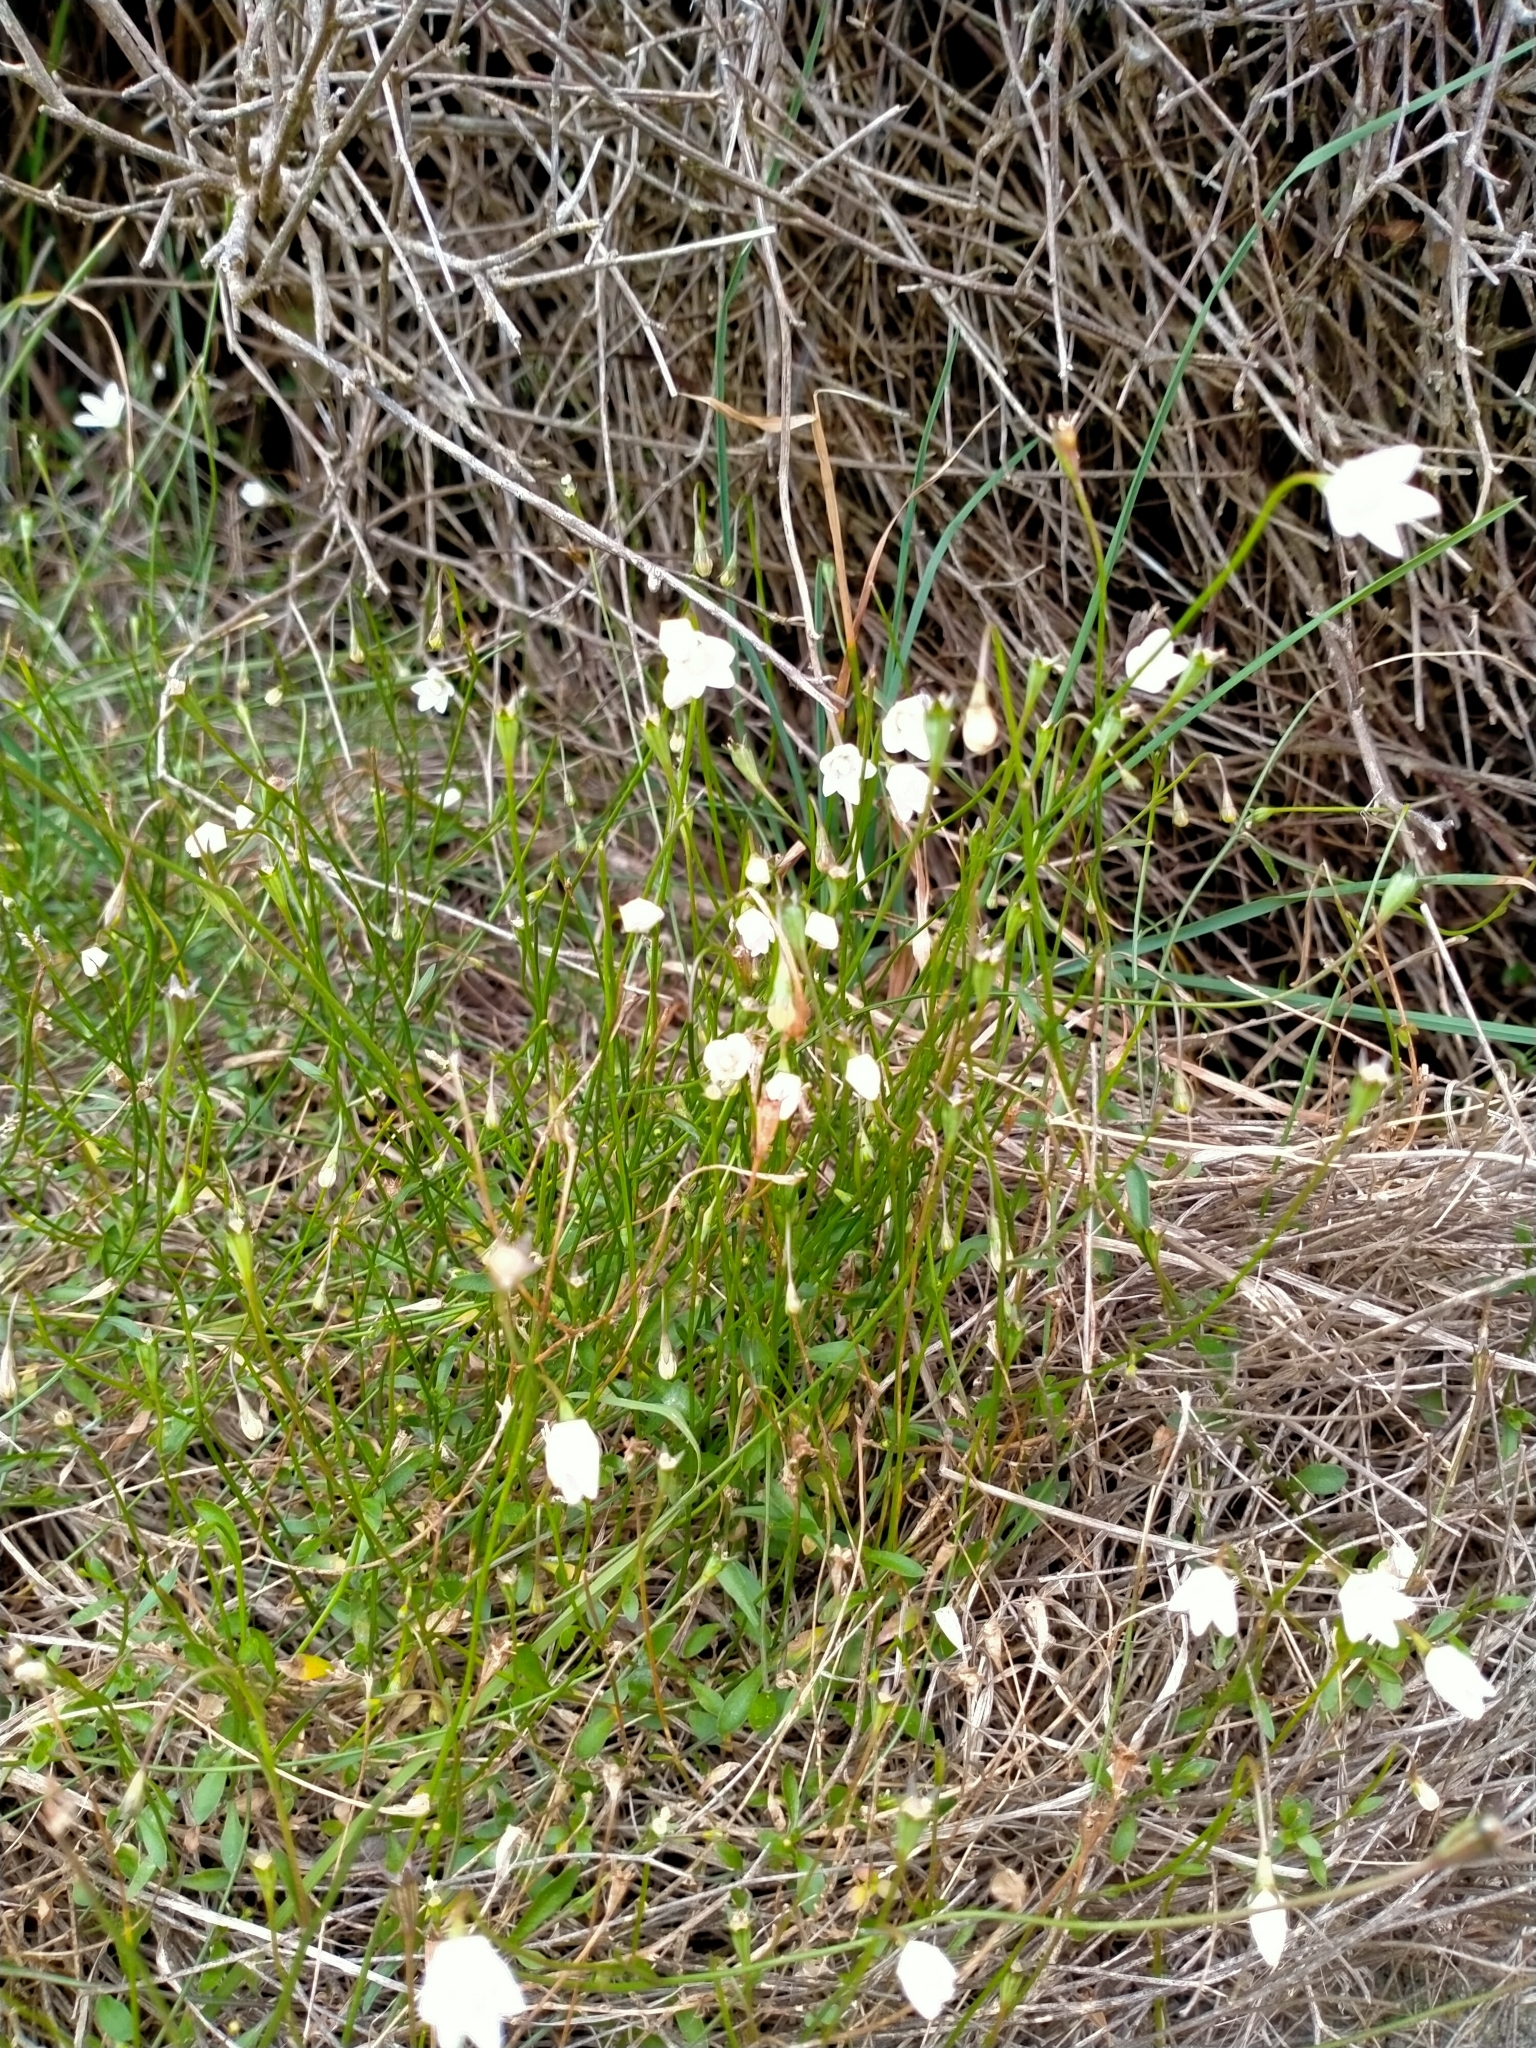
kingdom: Plantae
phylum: Tracheophyta
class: Magnoliopsida
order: Asterales
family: Campanulaceae
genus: Wahlenbergia
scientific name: Wahlenbergia rupestris
